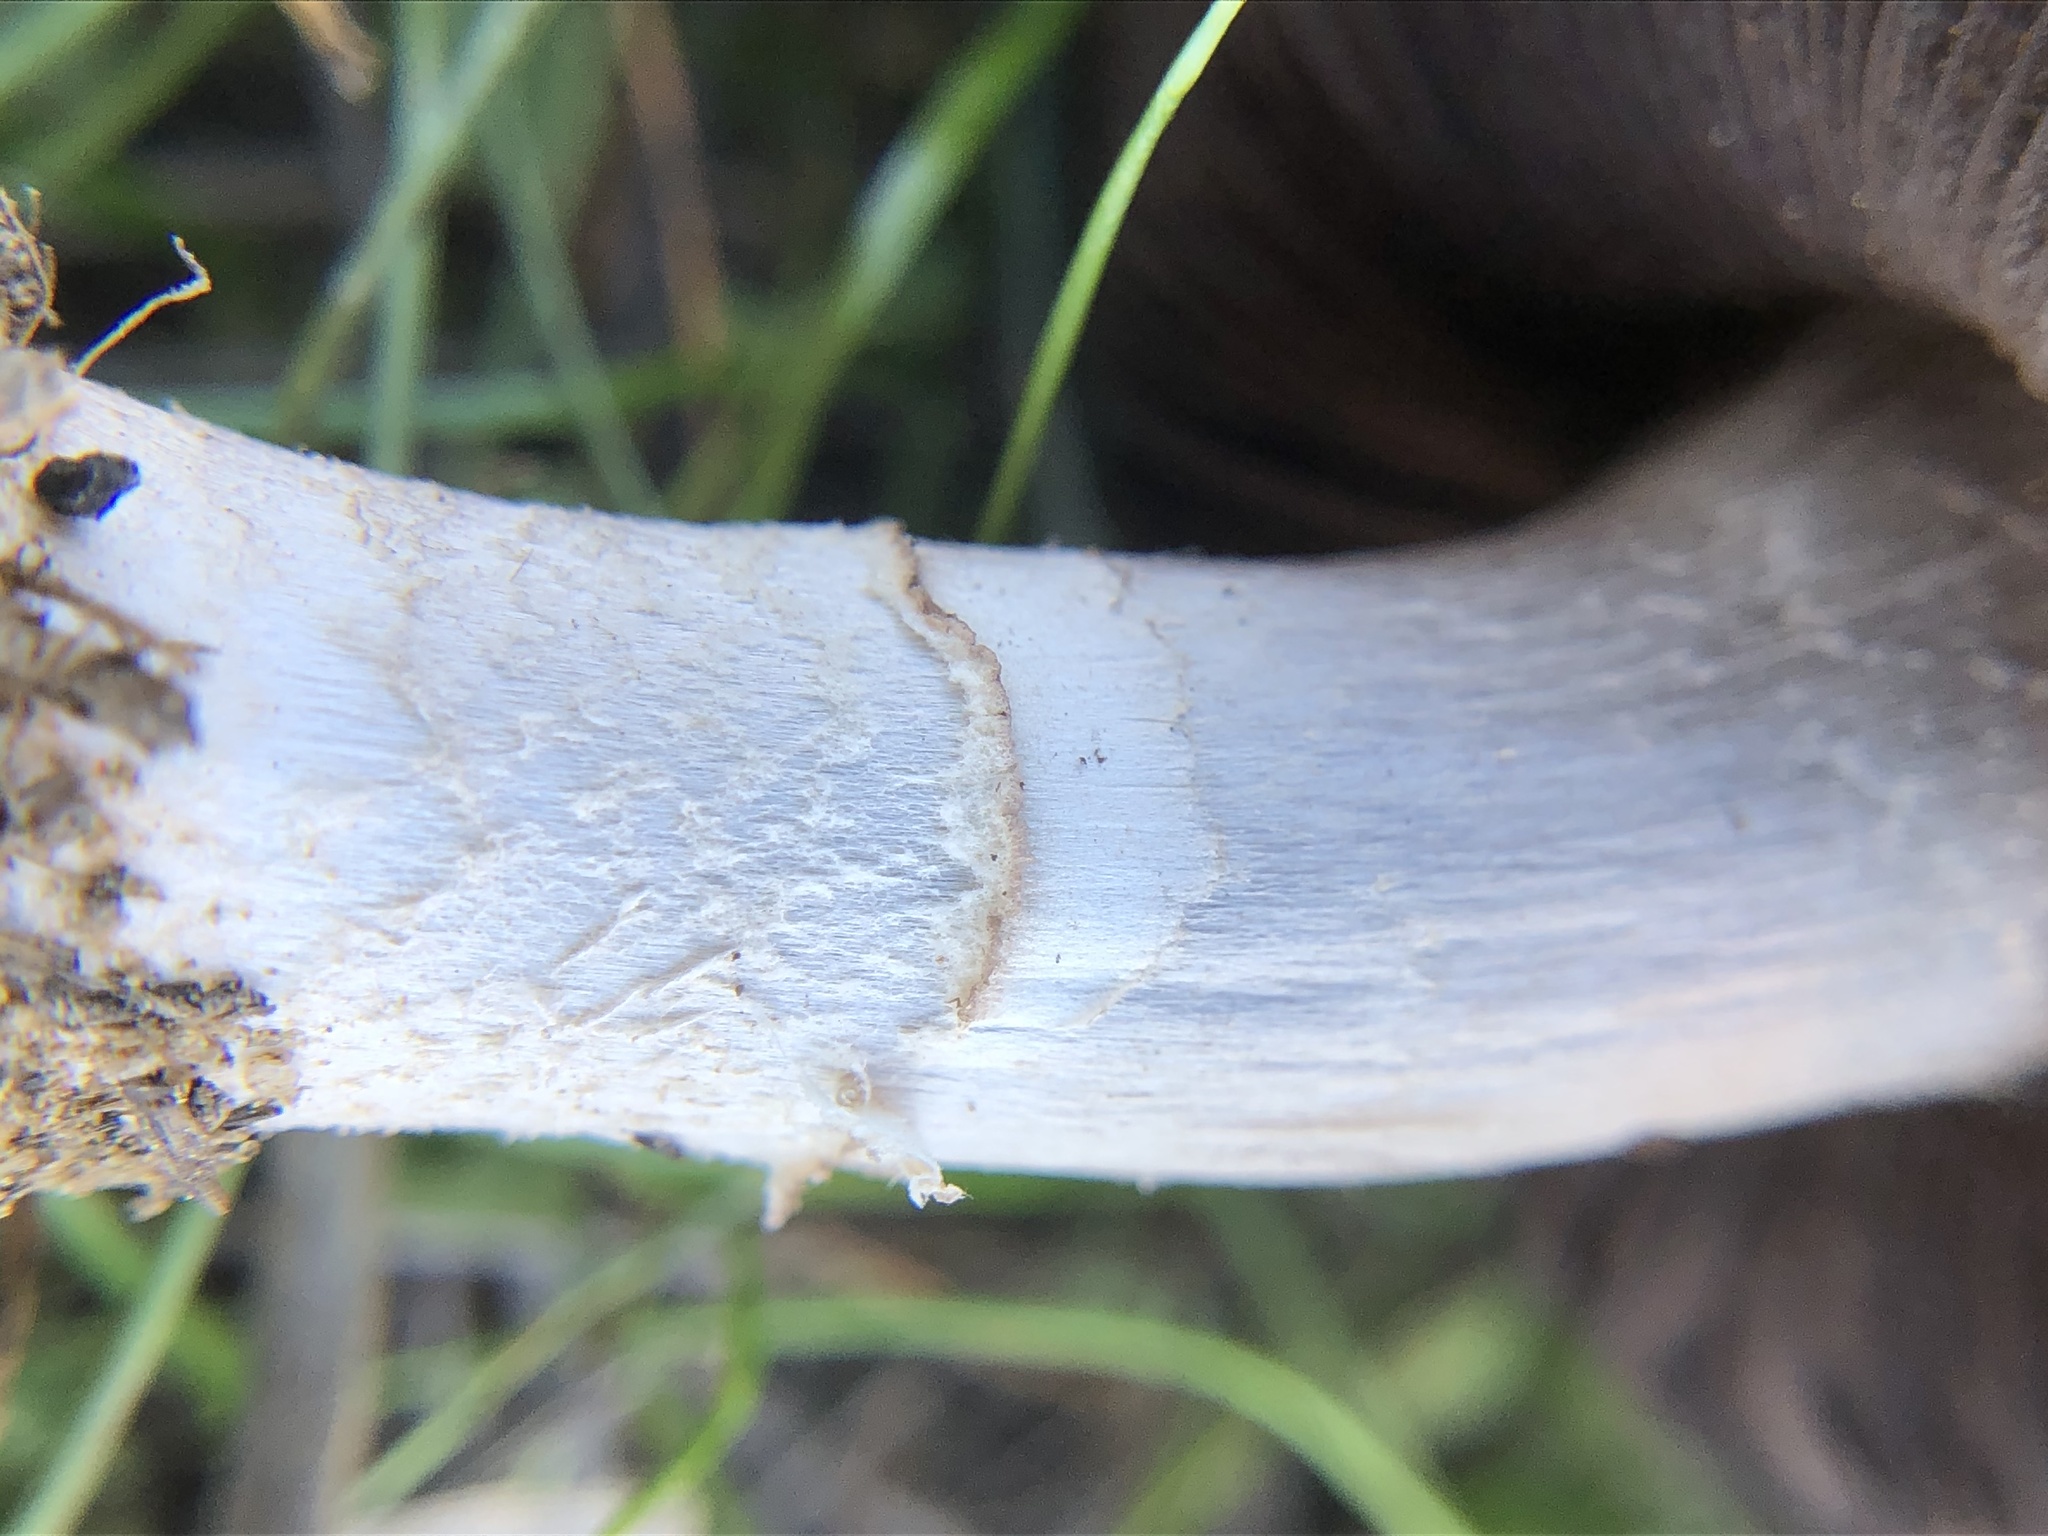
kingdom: Fungi
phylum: Basidiomycota
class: Agaricomycetes
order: Agaricales
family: Agaricaceae
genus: Agaricus
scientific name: Agaricus incultorum
